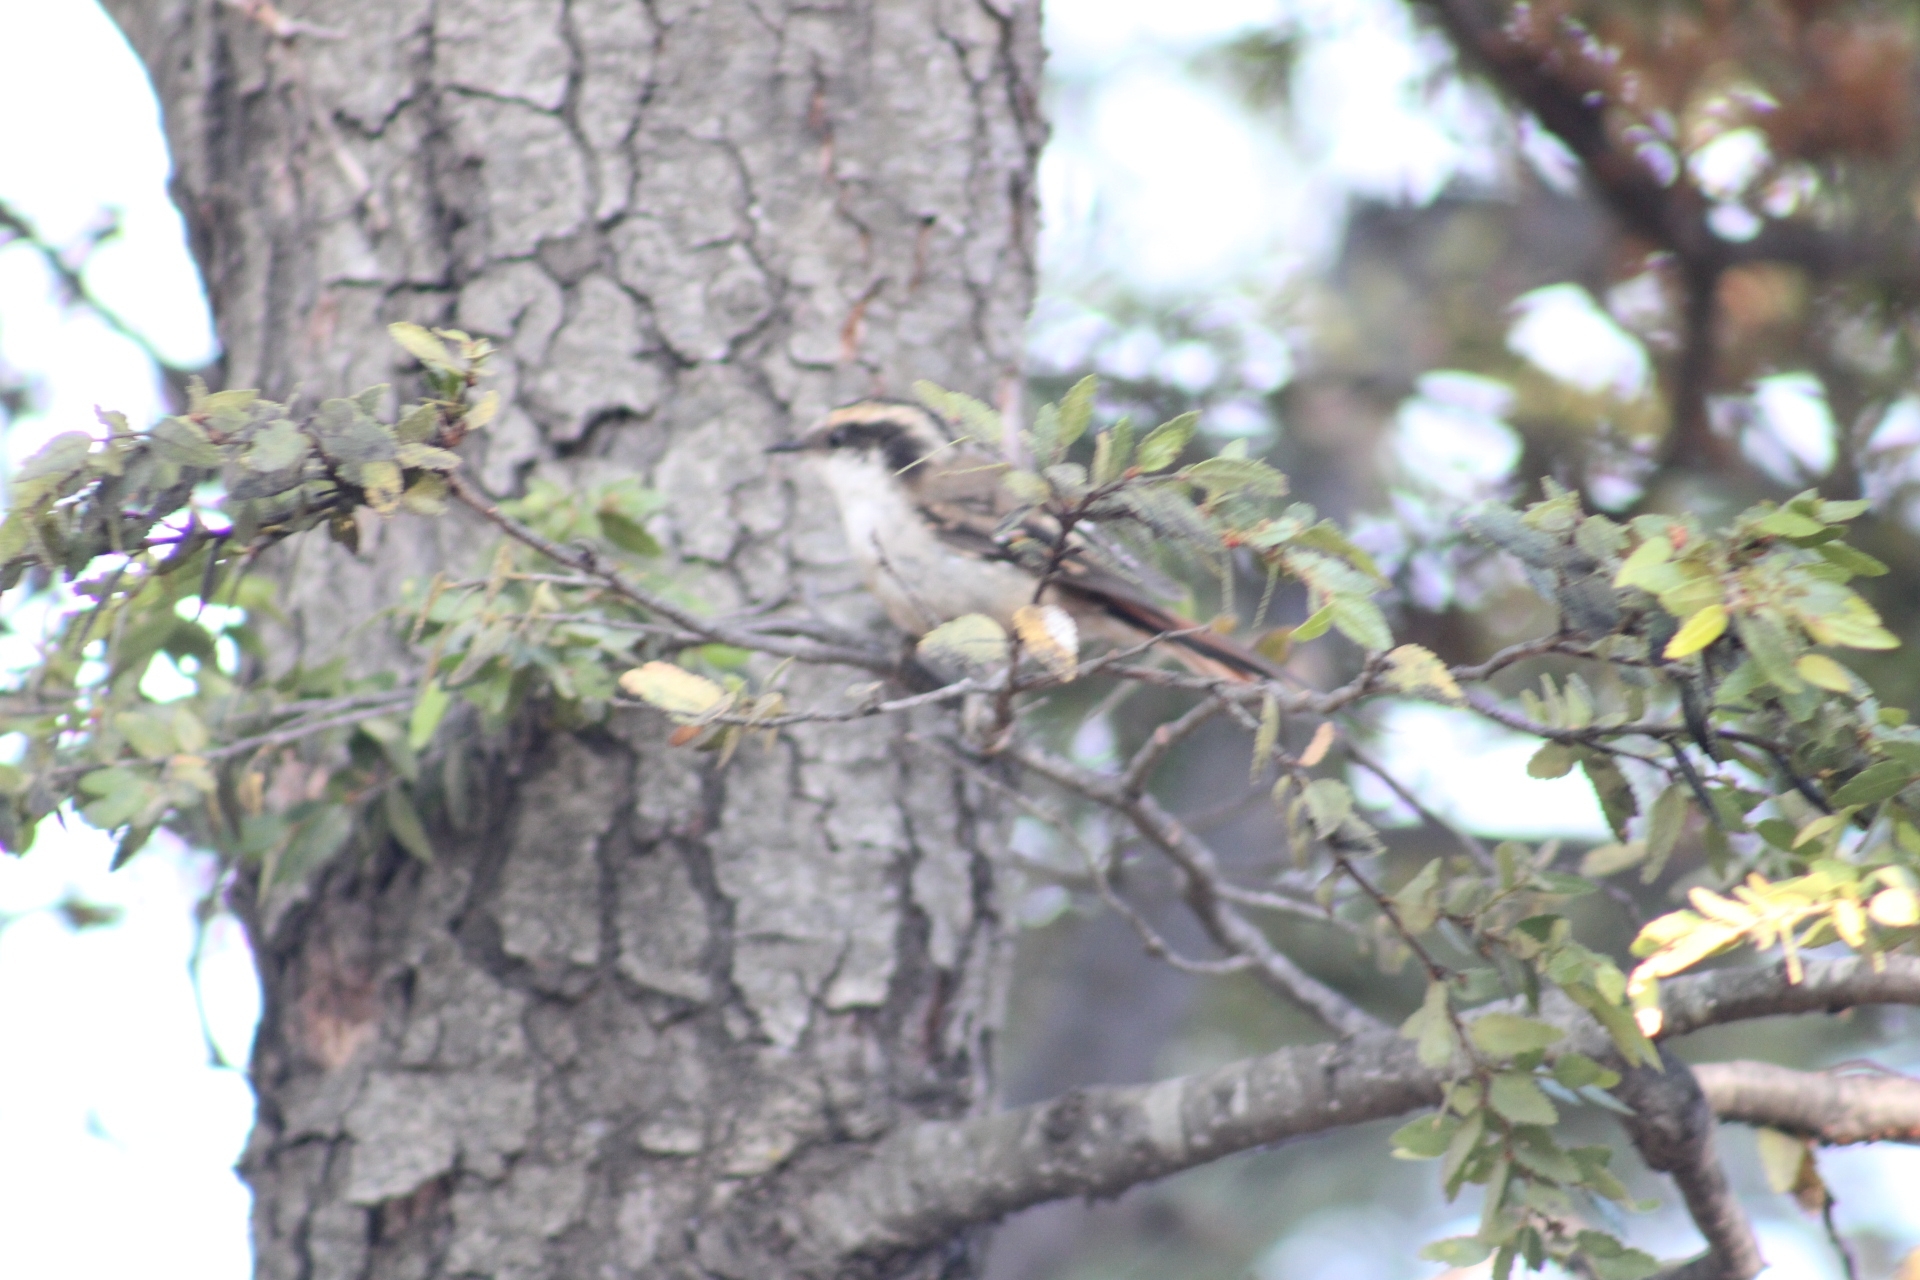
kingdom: Animalia
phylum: Chordata
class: Aves
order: Passeriformes
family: Furnariidae
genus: Aphrastura
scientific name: Aphrastura spinicauda
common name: Thorn-tailed rayadito
